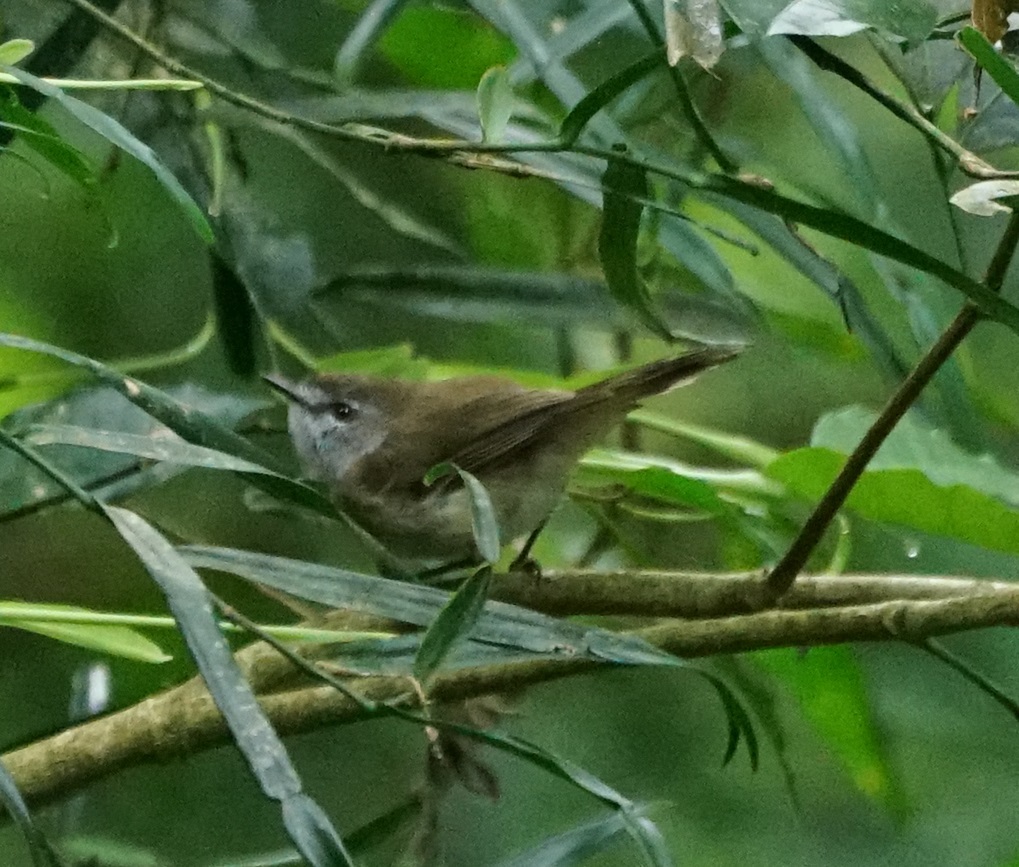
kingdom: Animalia
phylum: Chordata
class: Aves
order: Passeriformes
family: Acanthizidae
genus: Gerygone
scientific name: Gerygone mouki
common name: Brown gerygone
